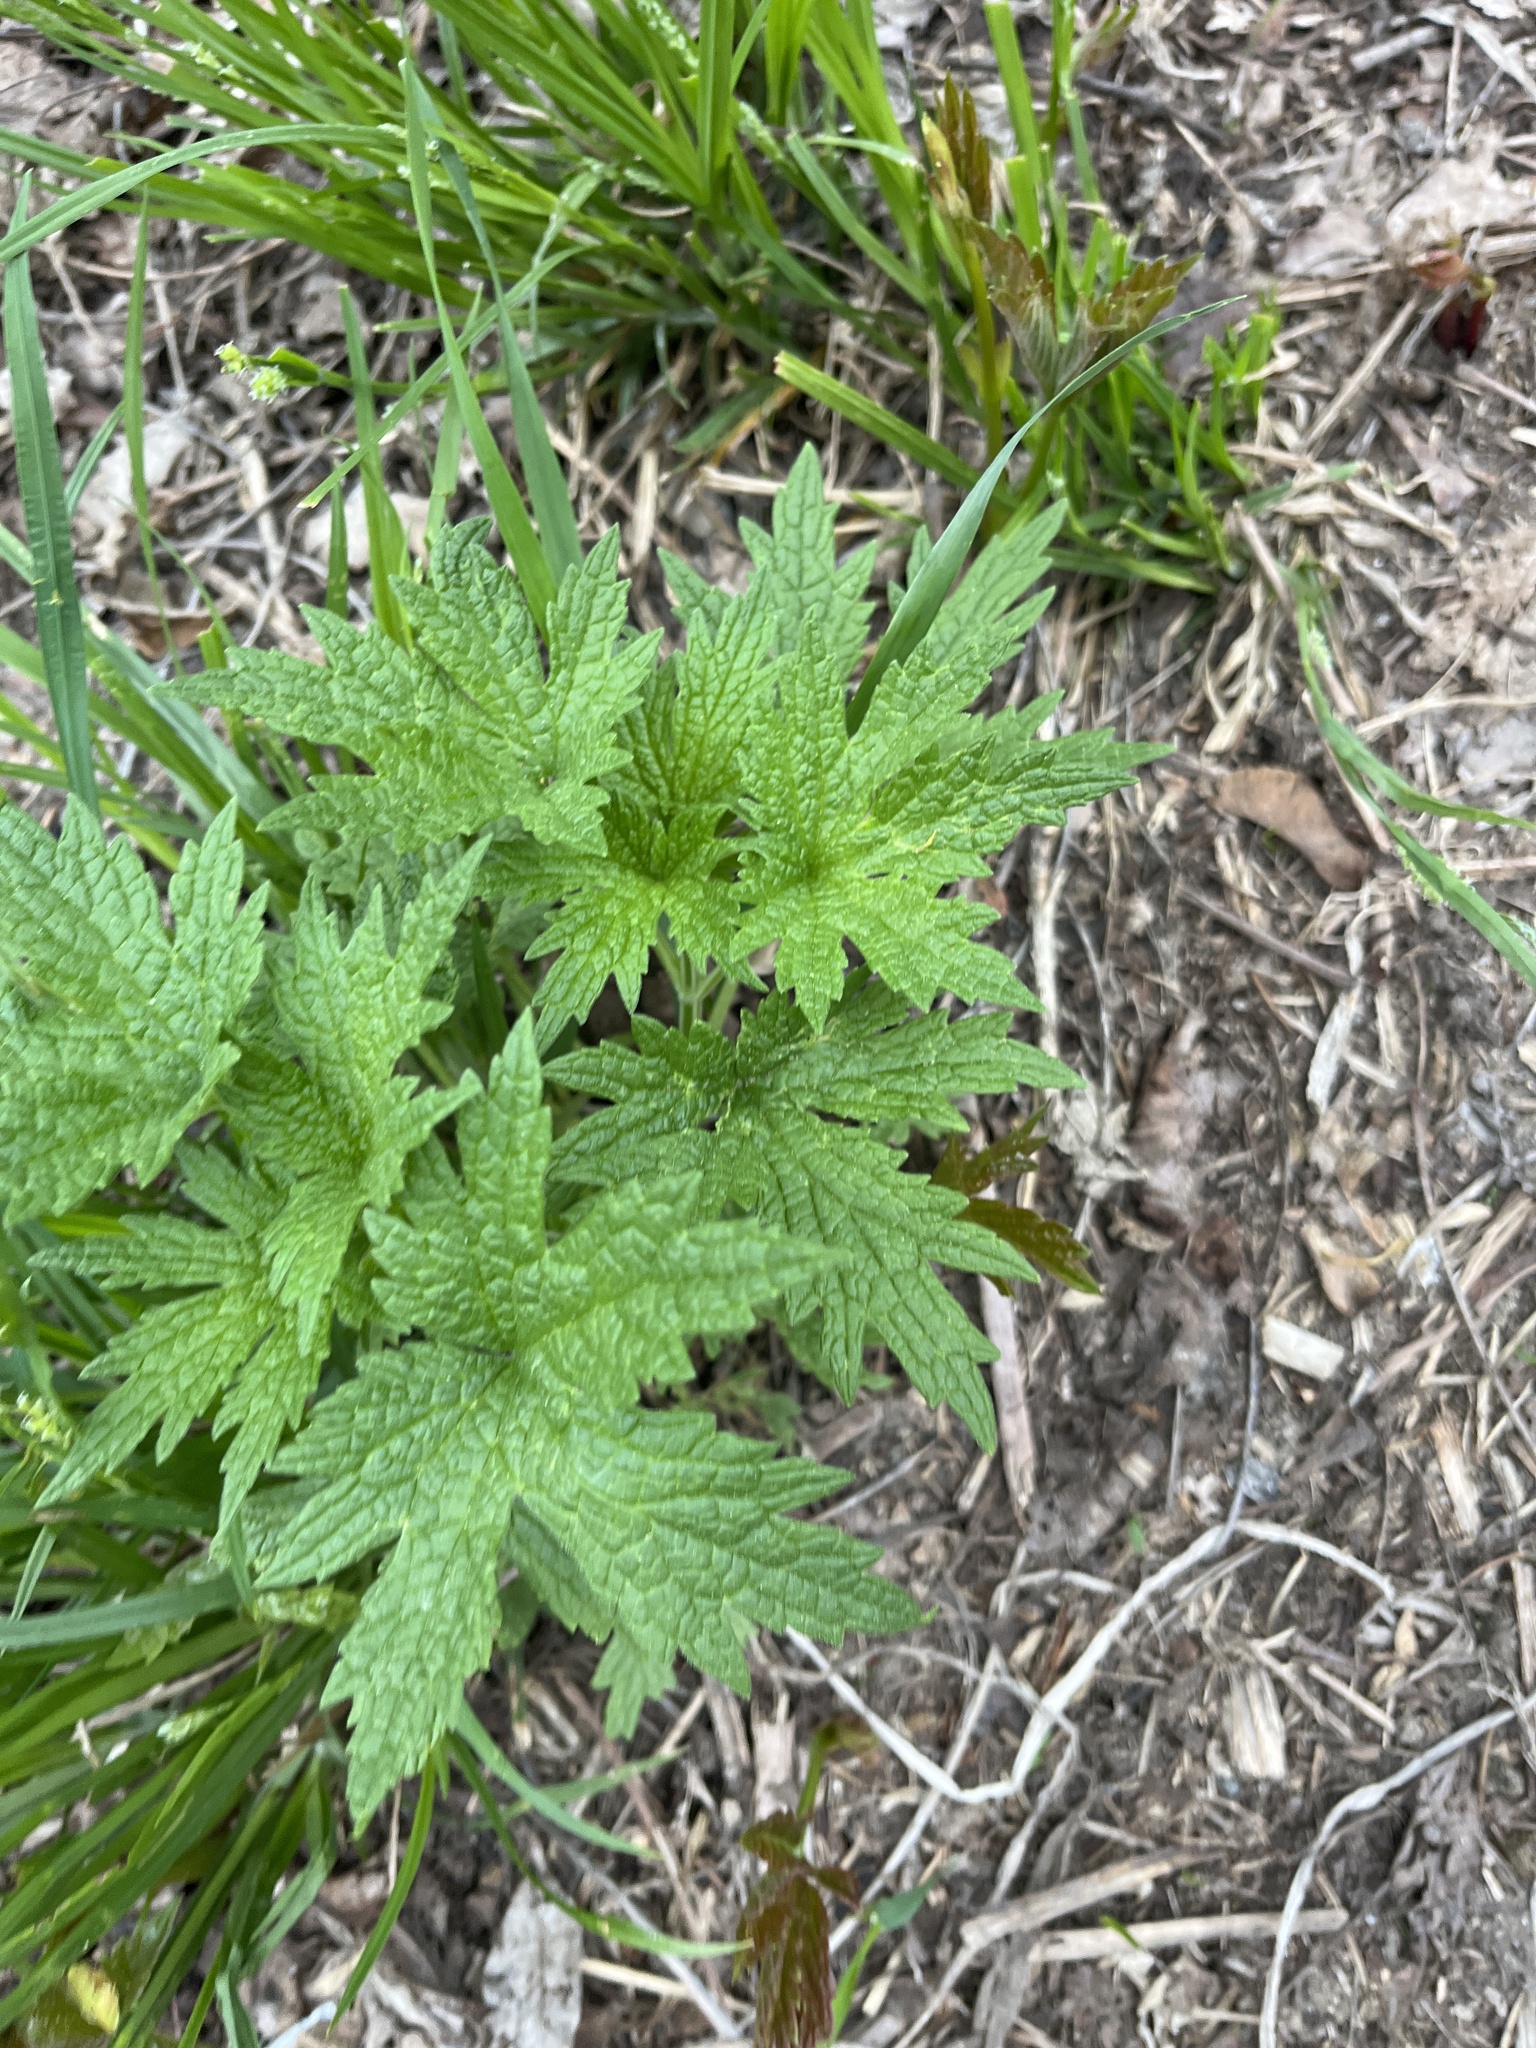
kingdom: Plantae
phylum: Tracheophyta
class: Magnoliopsida
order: Lamiales
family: Lamiaceae
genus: Leonurus
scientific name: Leonurus cardiaca
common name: Motherwort
